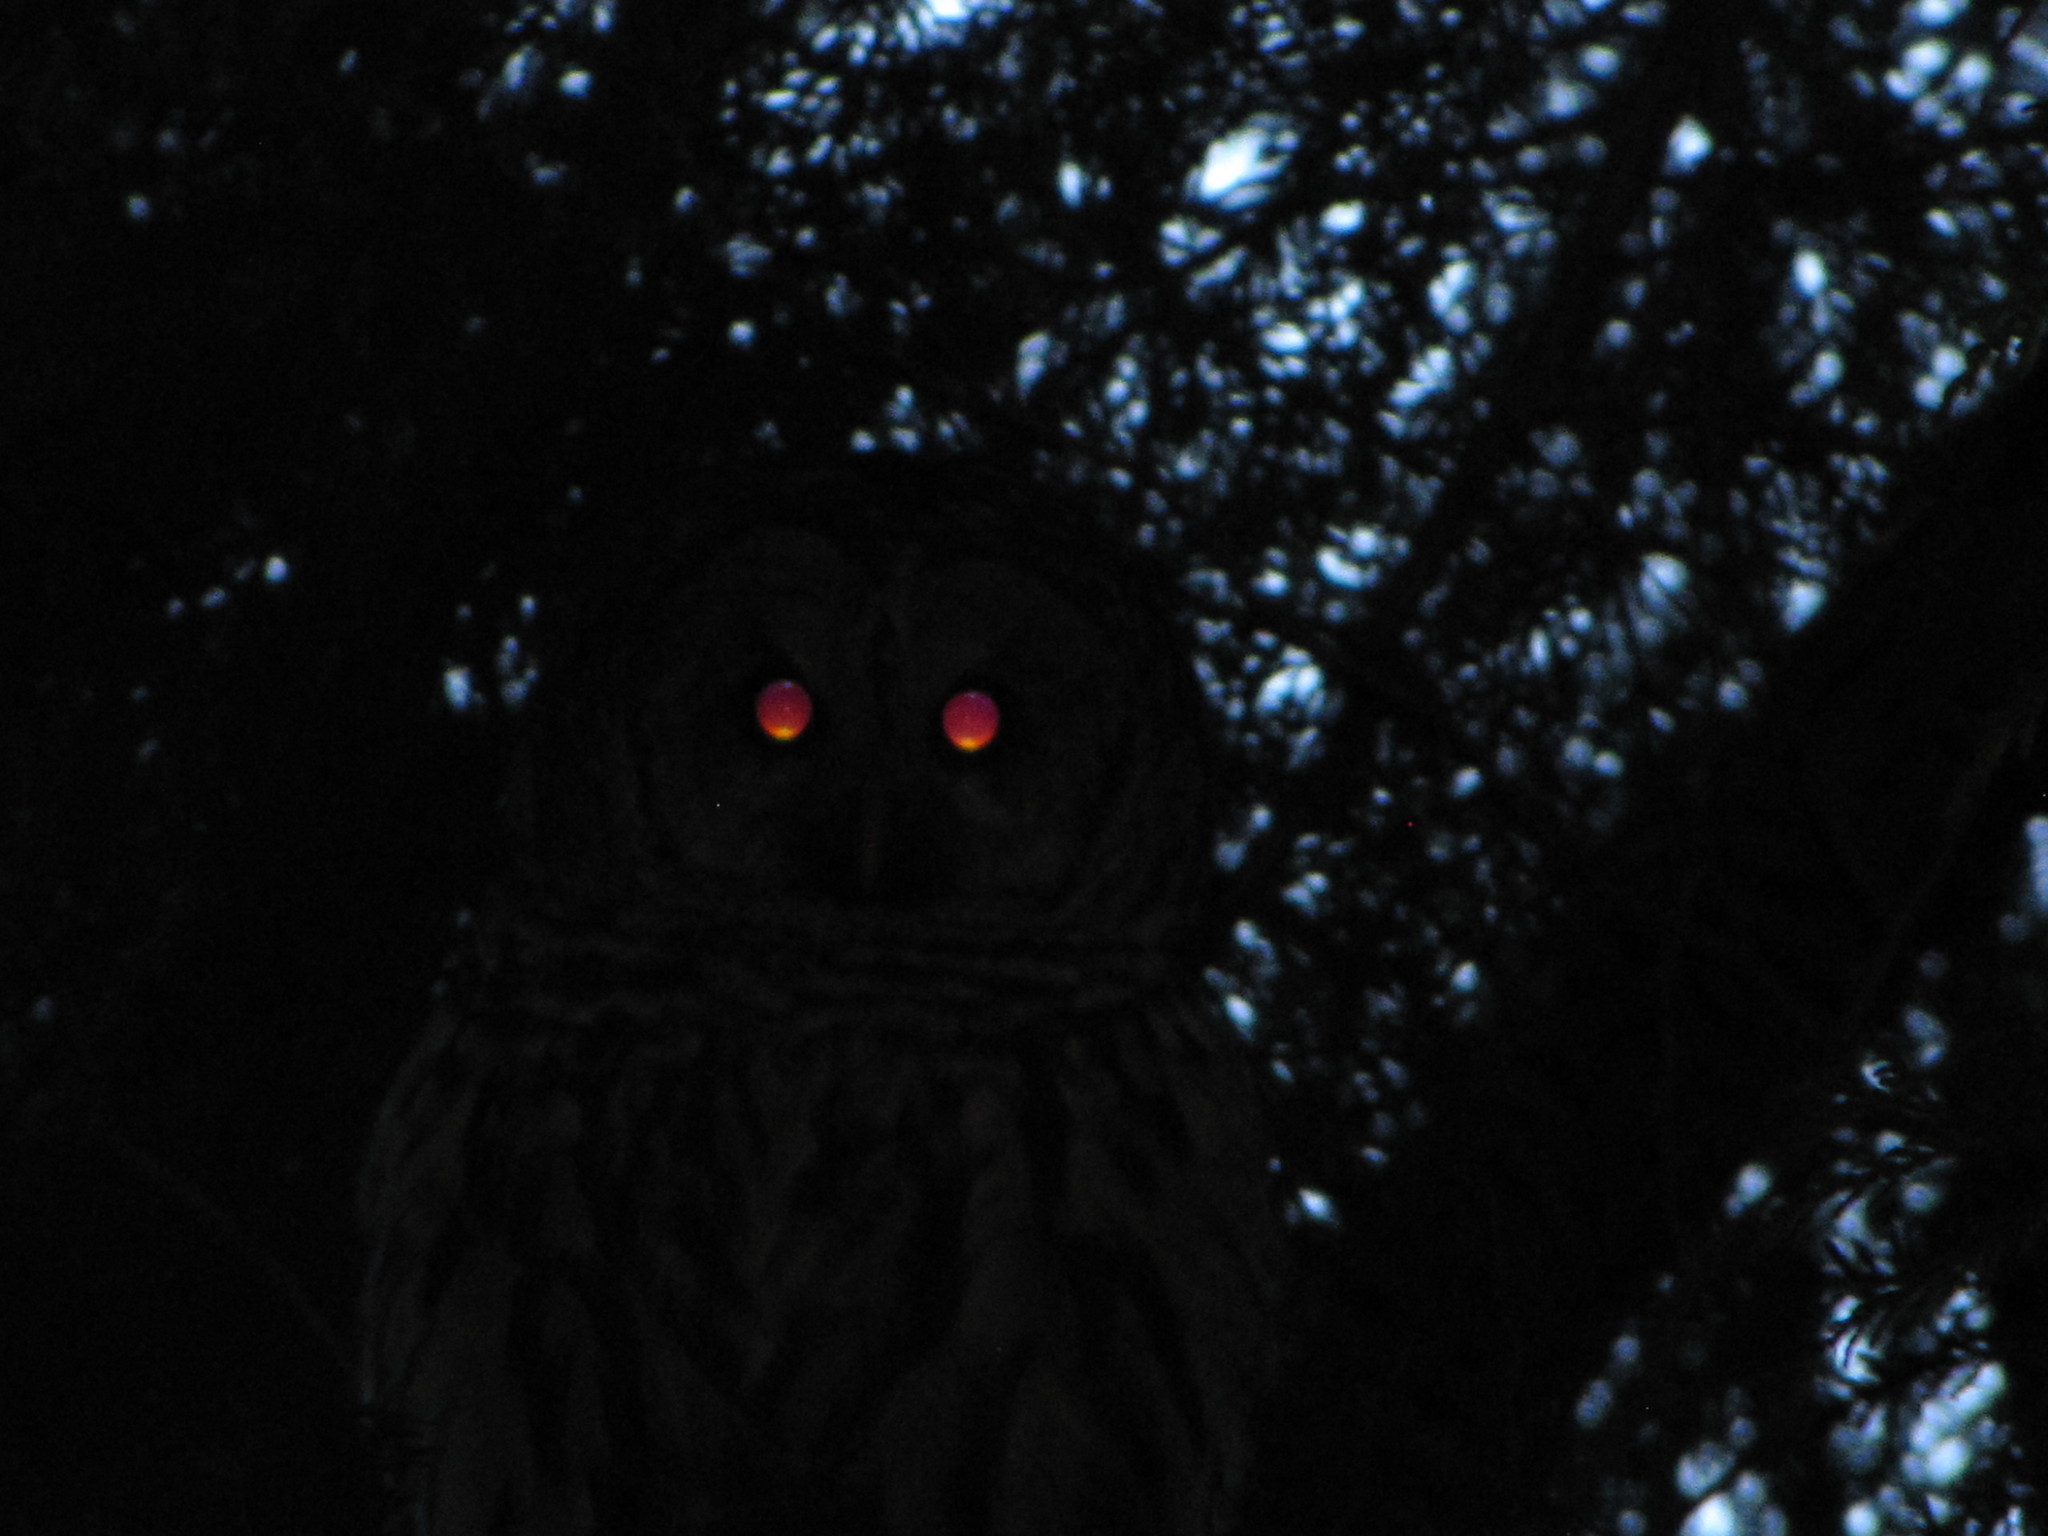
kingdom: Animalia
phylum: Chordata
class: Aves
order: Strigiformes
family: Strigidae
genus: Strix
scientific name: Strix varia
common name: Barred owl
